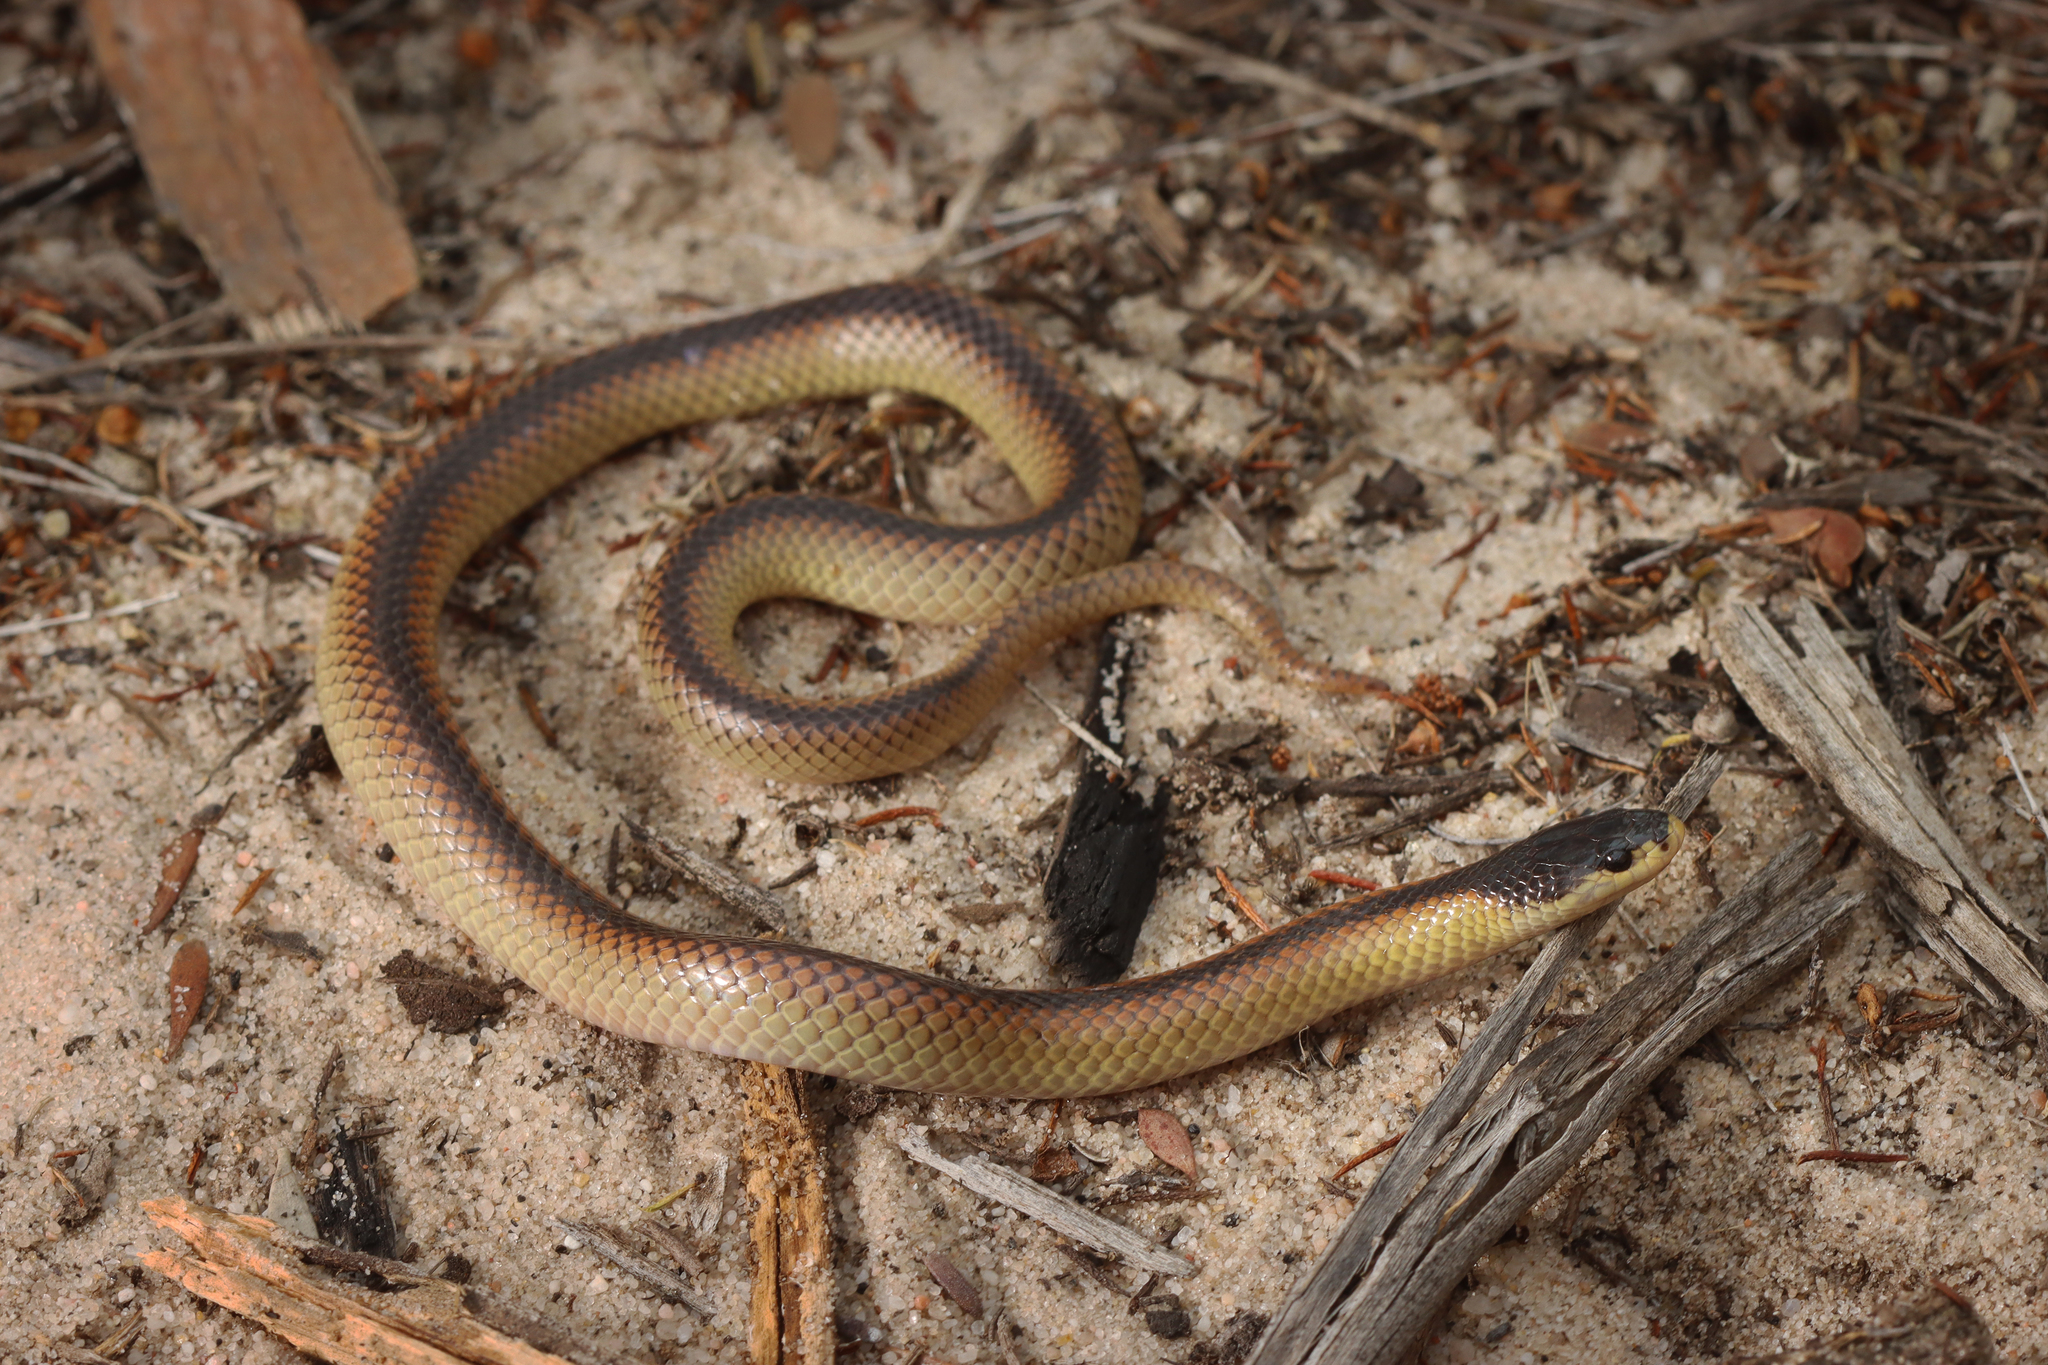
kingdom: Animalia
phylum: Chordata
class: Squamata
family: Elapidae
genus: Suta
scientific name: Suta dwyeri
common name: Variable black-naped snake
